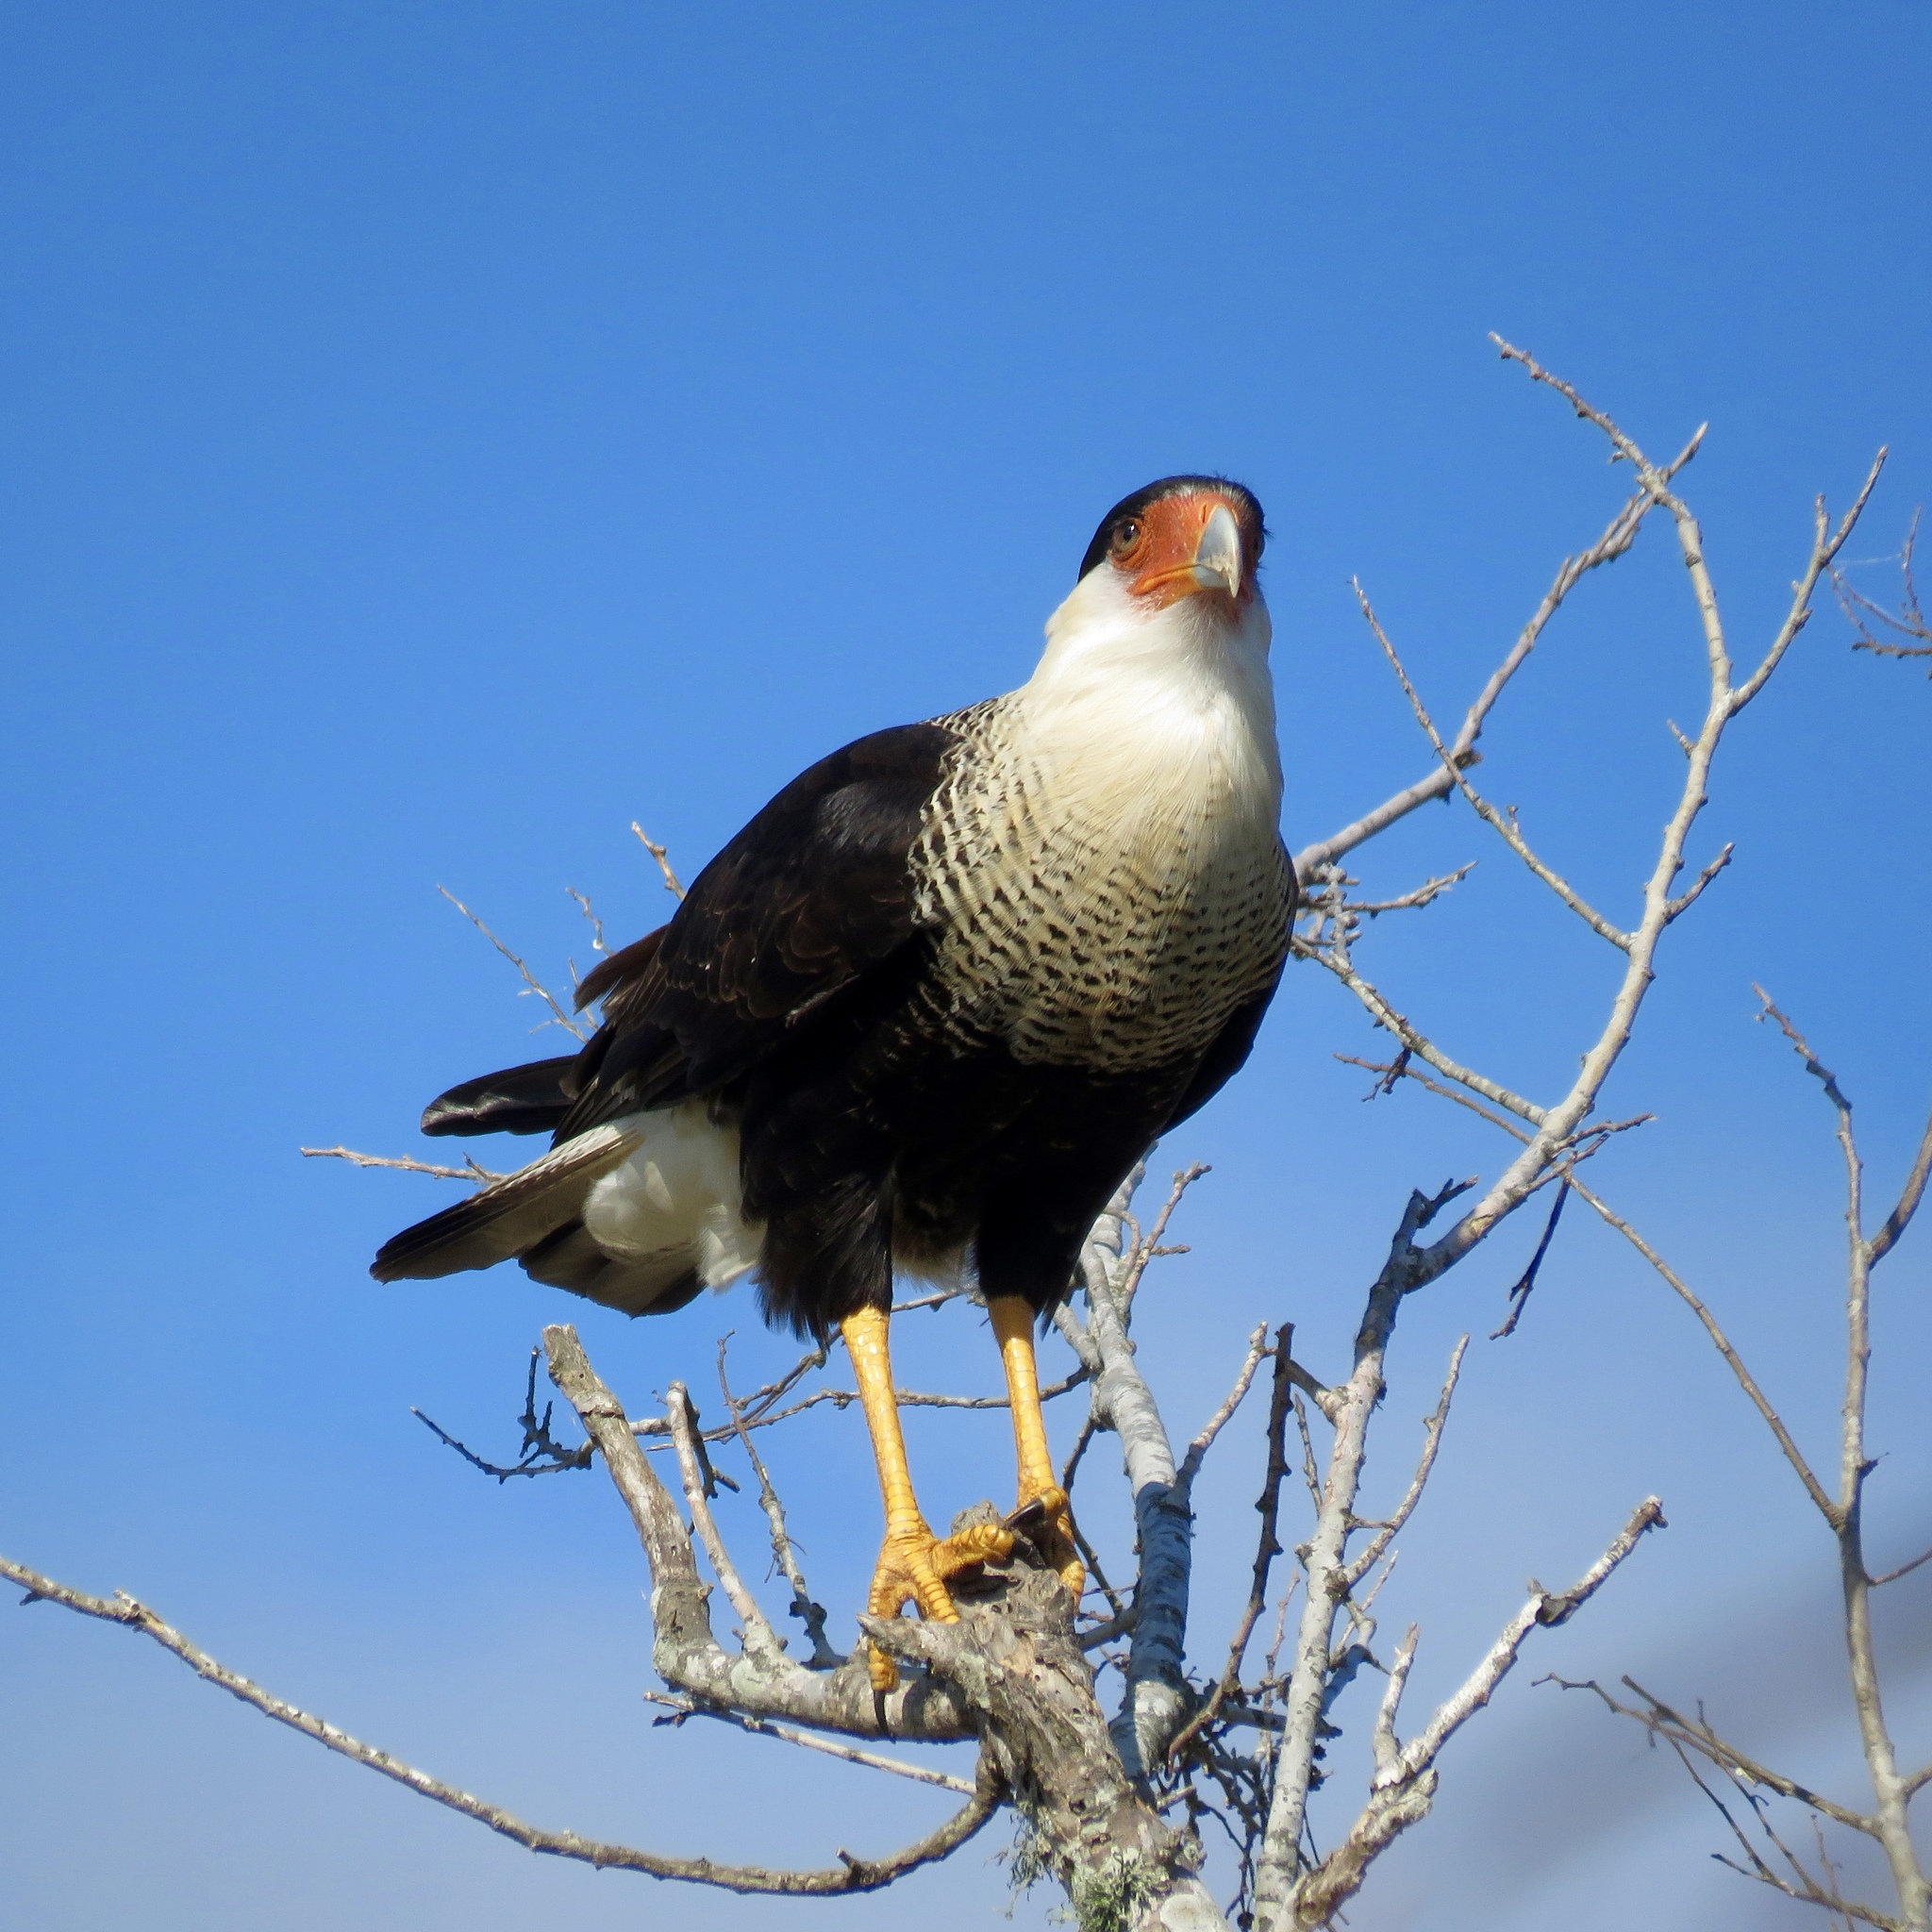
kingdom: Animalia
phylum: Chordata
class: Aves
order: Falconiformes
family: Falconidae
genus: Caracara
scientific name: Caracara plancus
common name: Southern caracara
